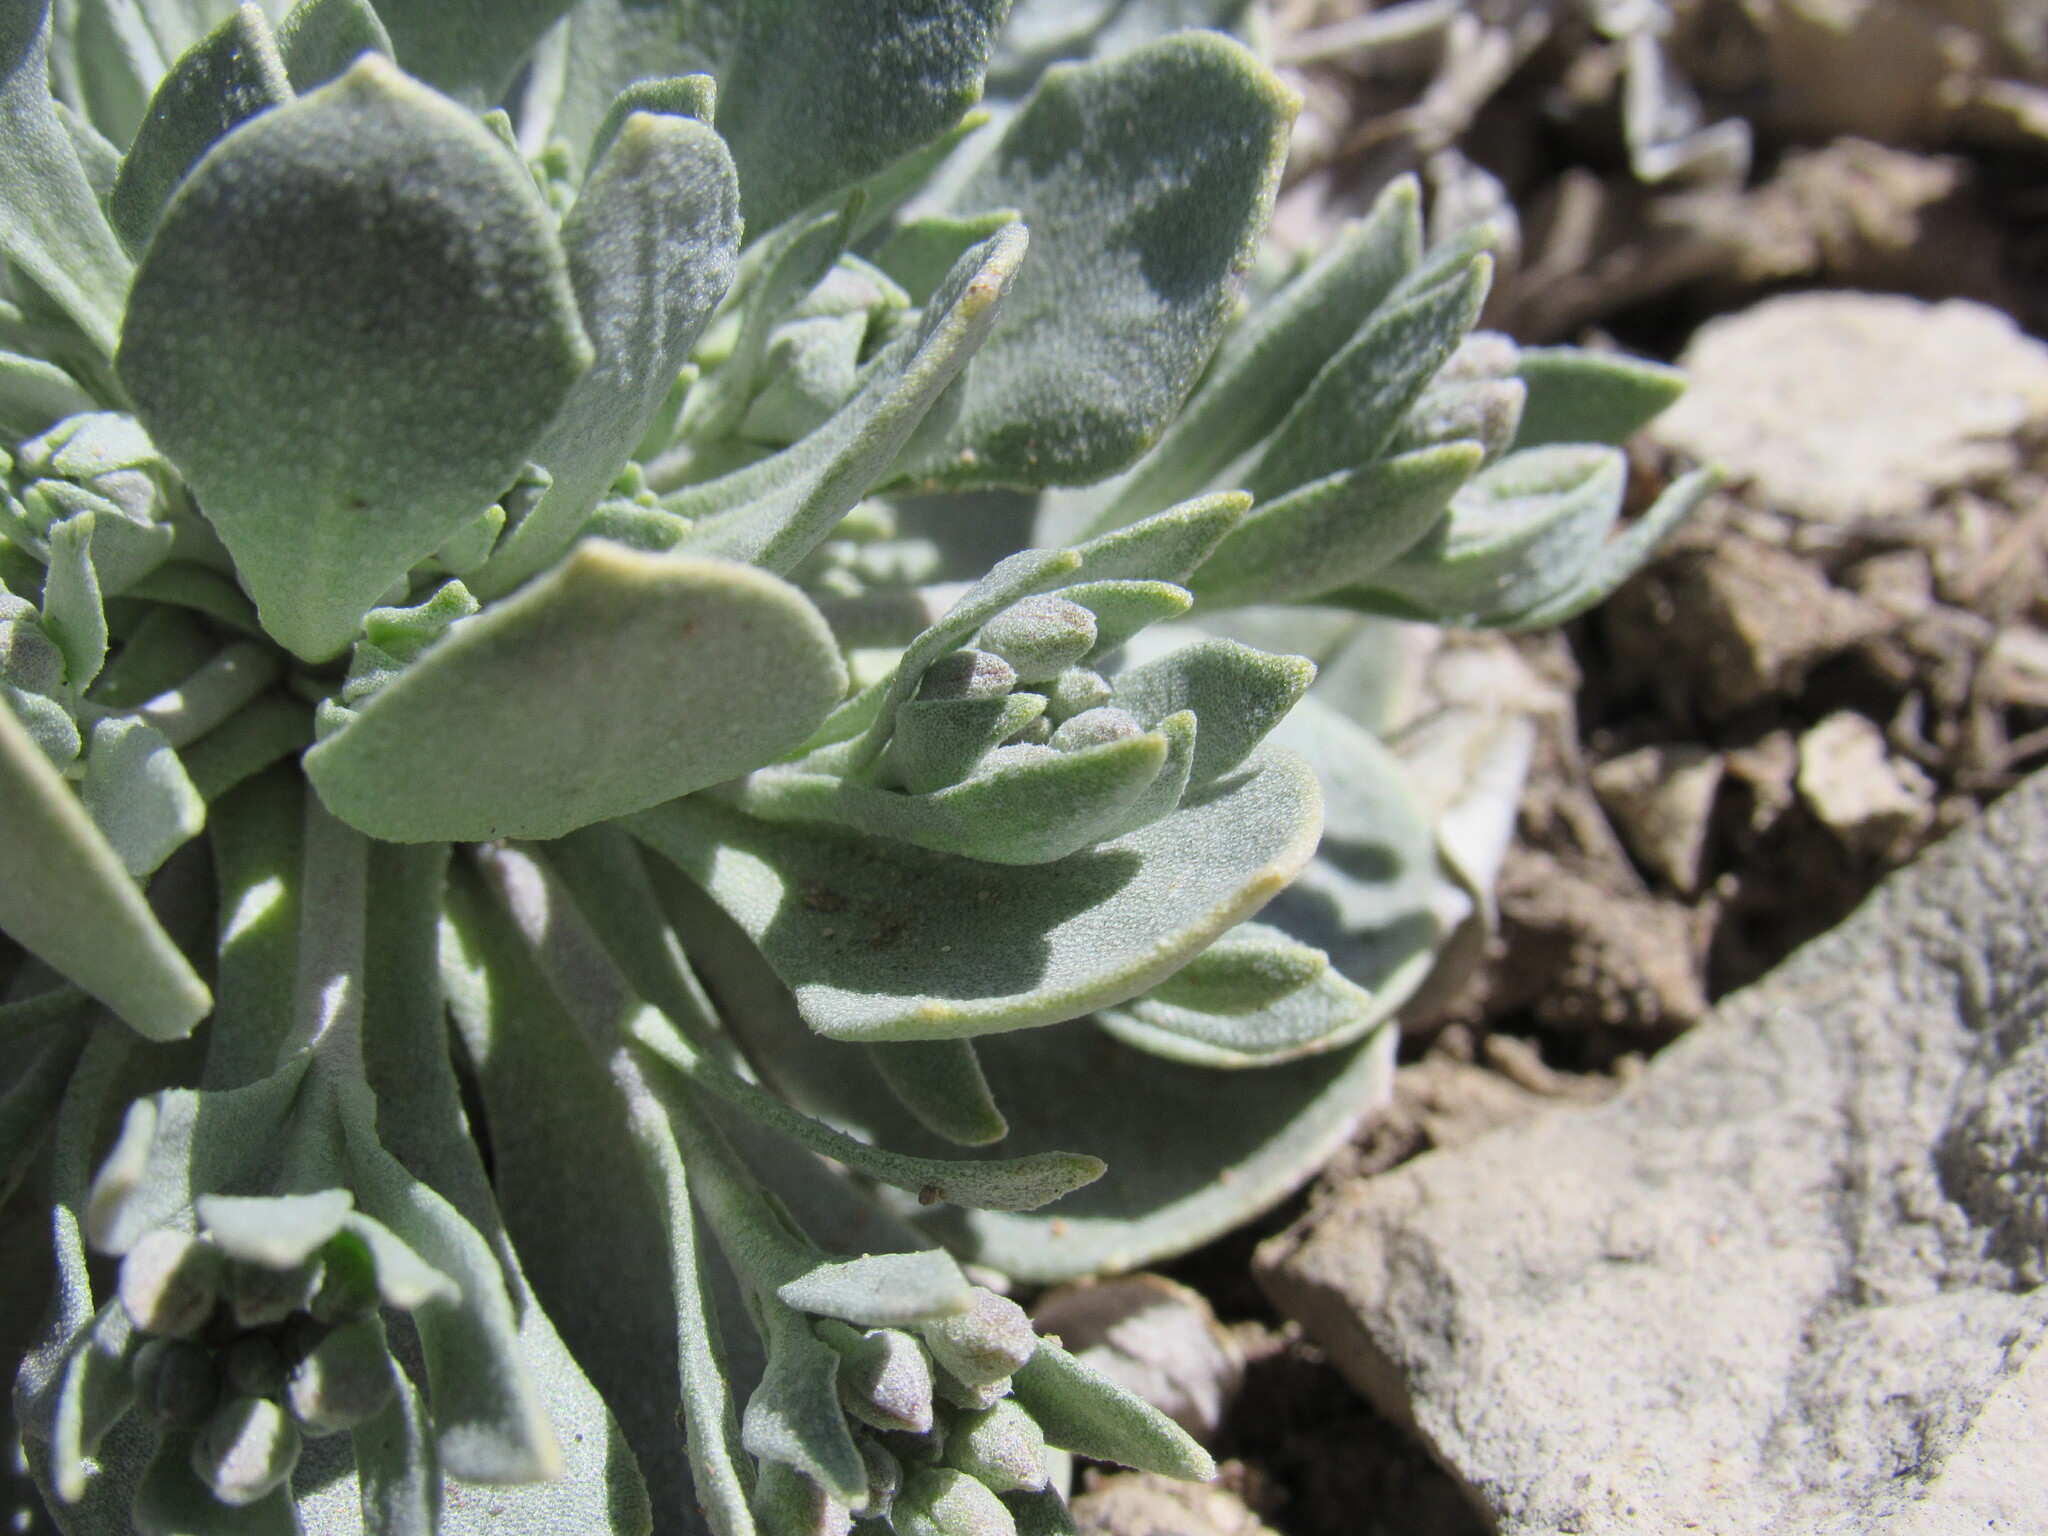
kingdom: Plantae
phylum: Tracheophyta
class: Magnoliopsida
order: Brassicales
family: Brassicaceae
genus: Physaria
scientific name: Physaria bellii
